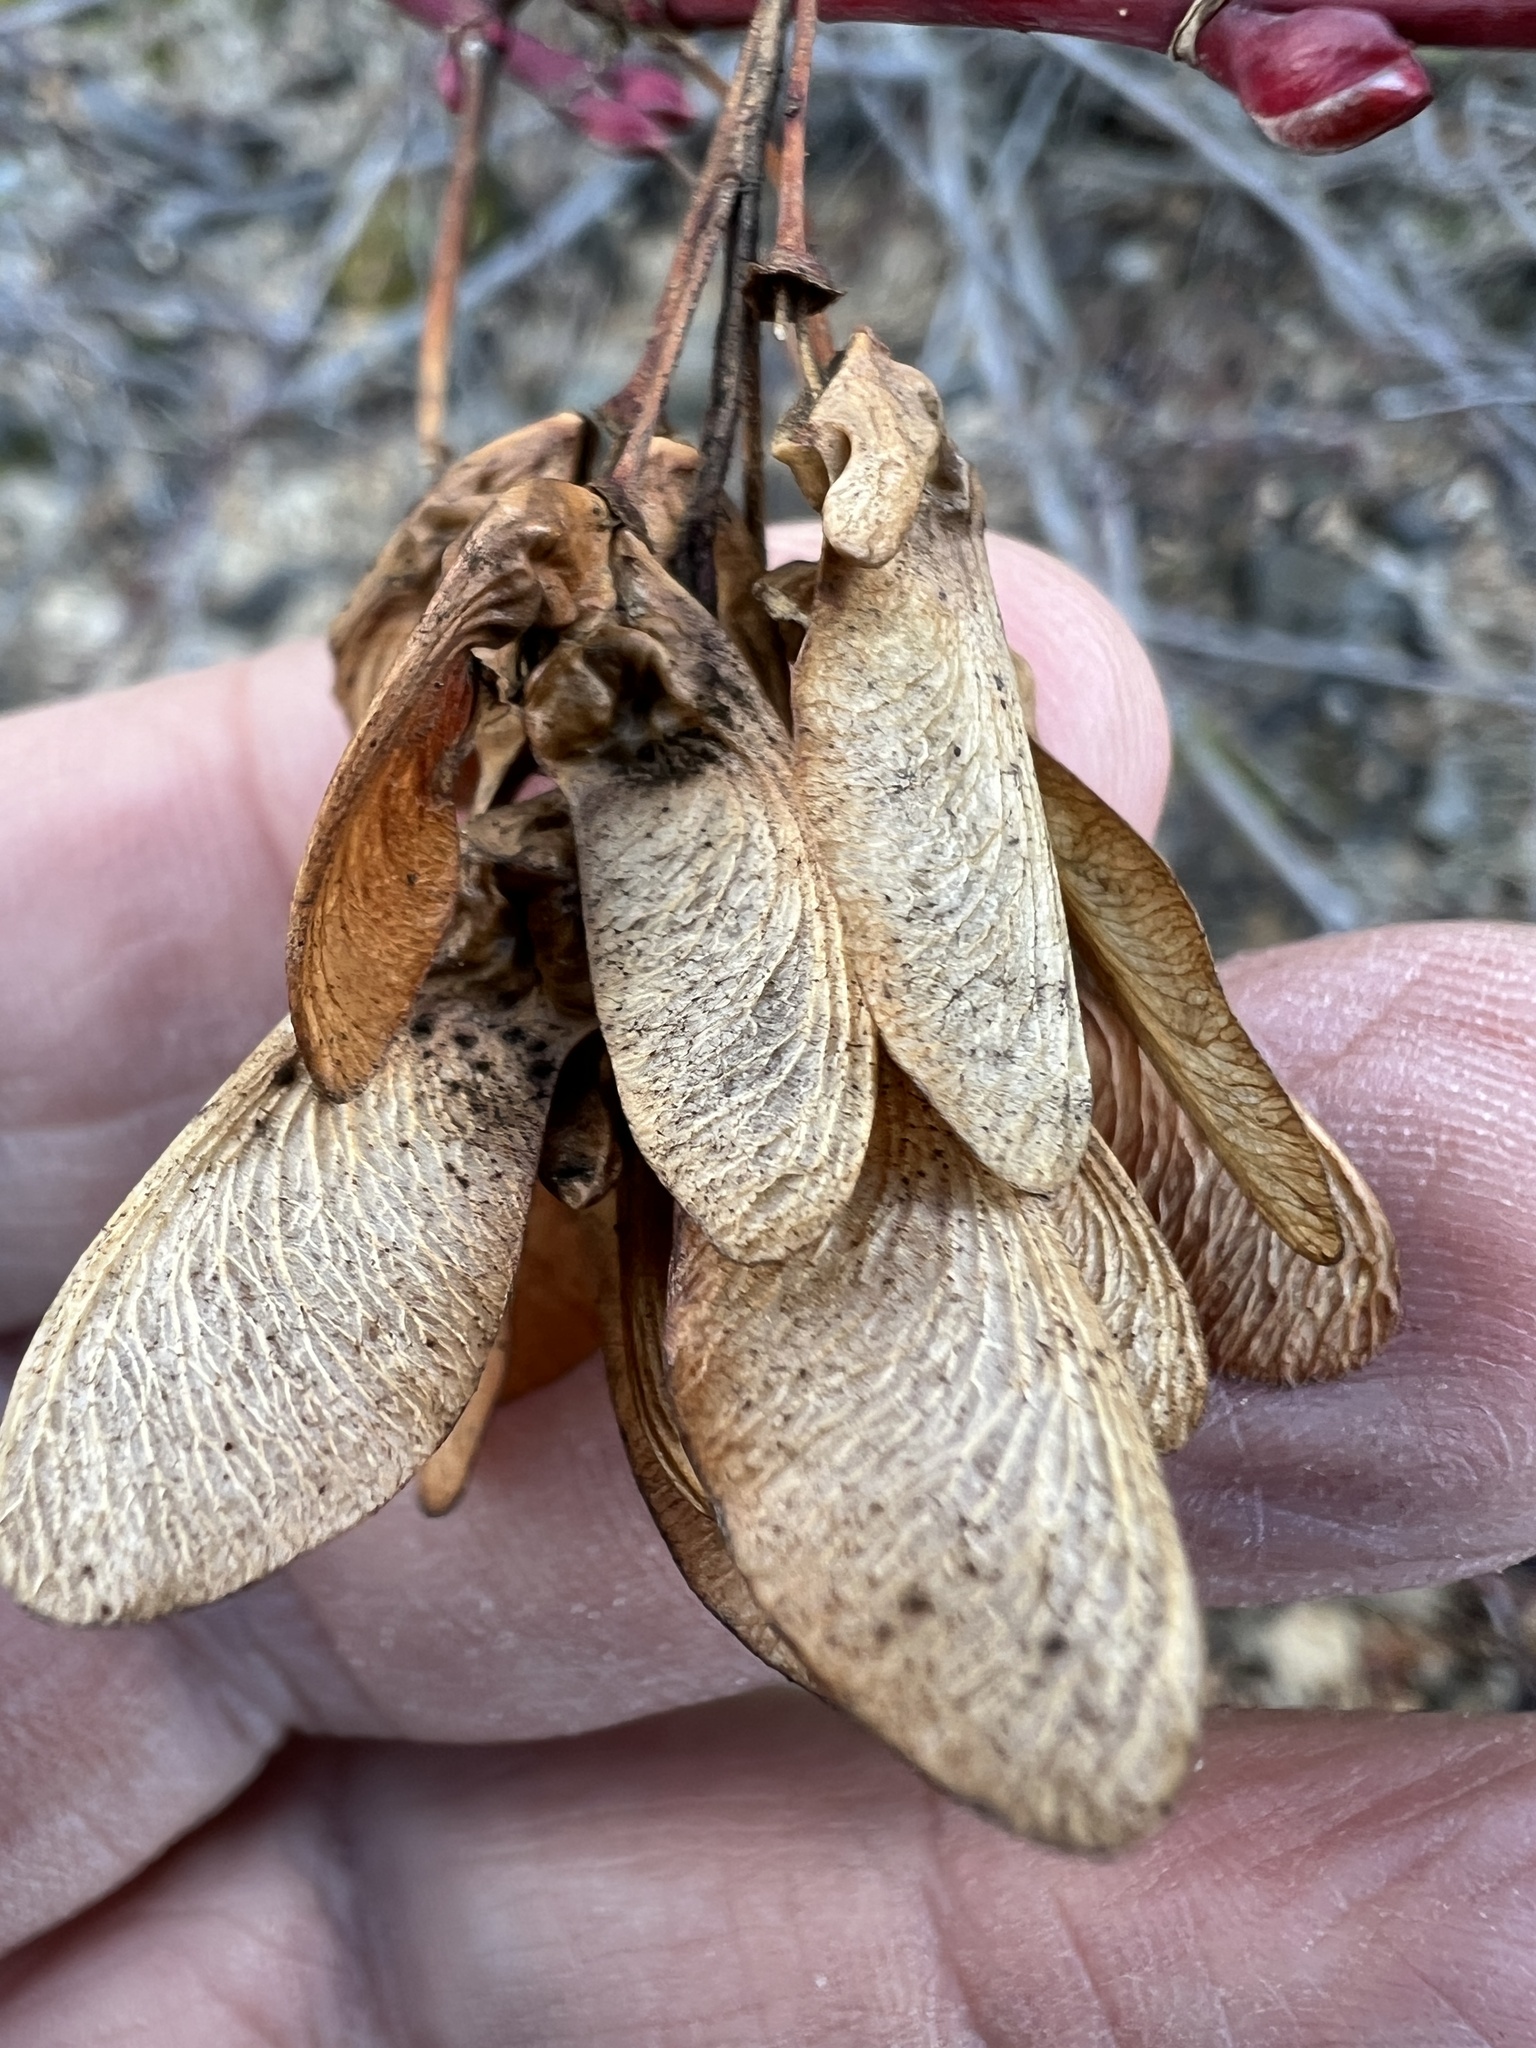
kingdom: Plantae
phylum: Tracheophyta
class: Magnoliopsida
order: Sapindales
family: Sapindaceae
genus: Acer
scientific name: Acer glabrum
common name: Rocky mountain maple
